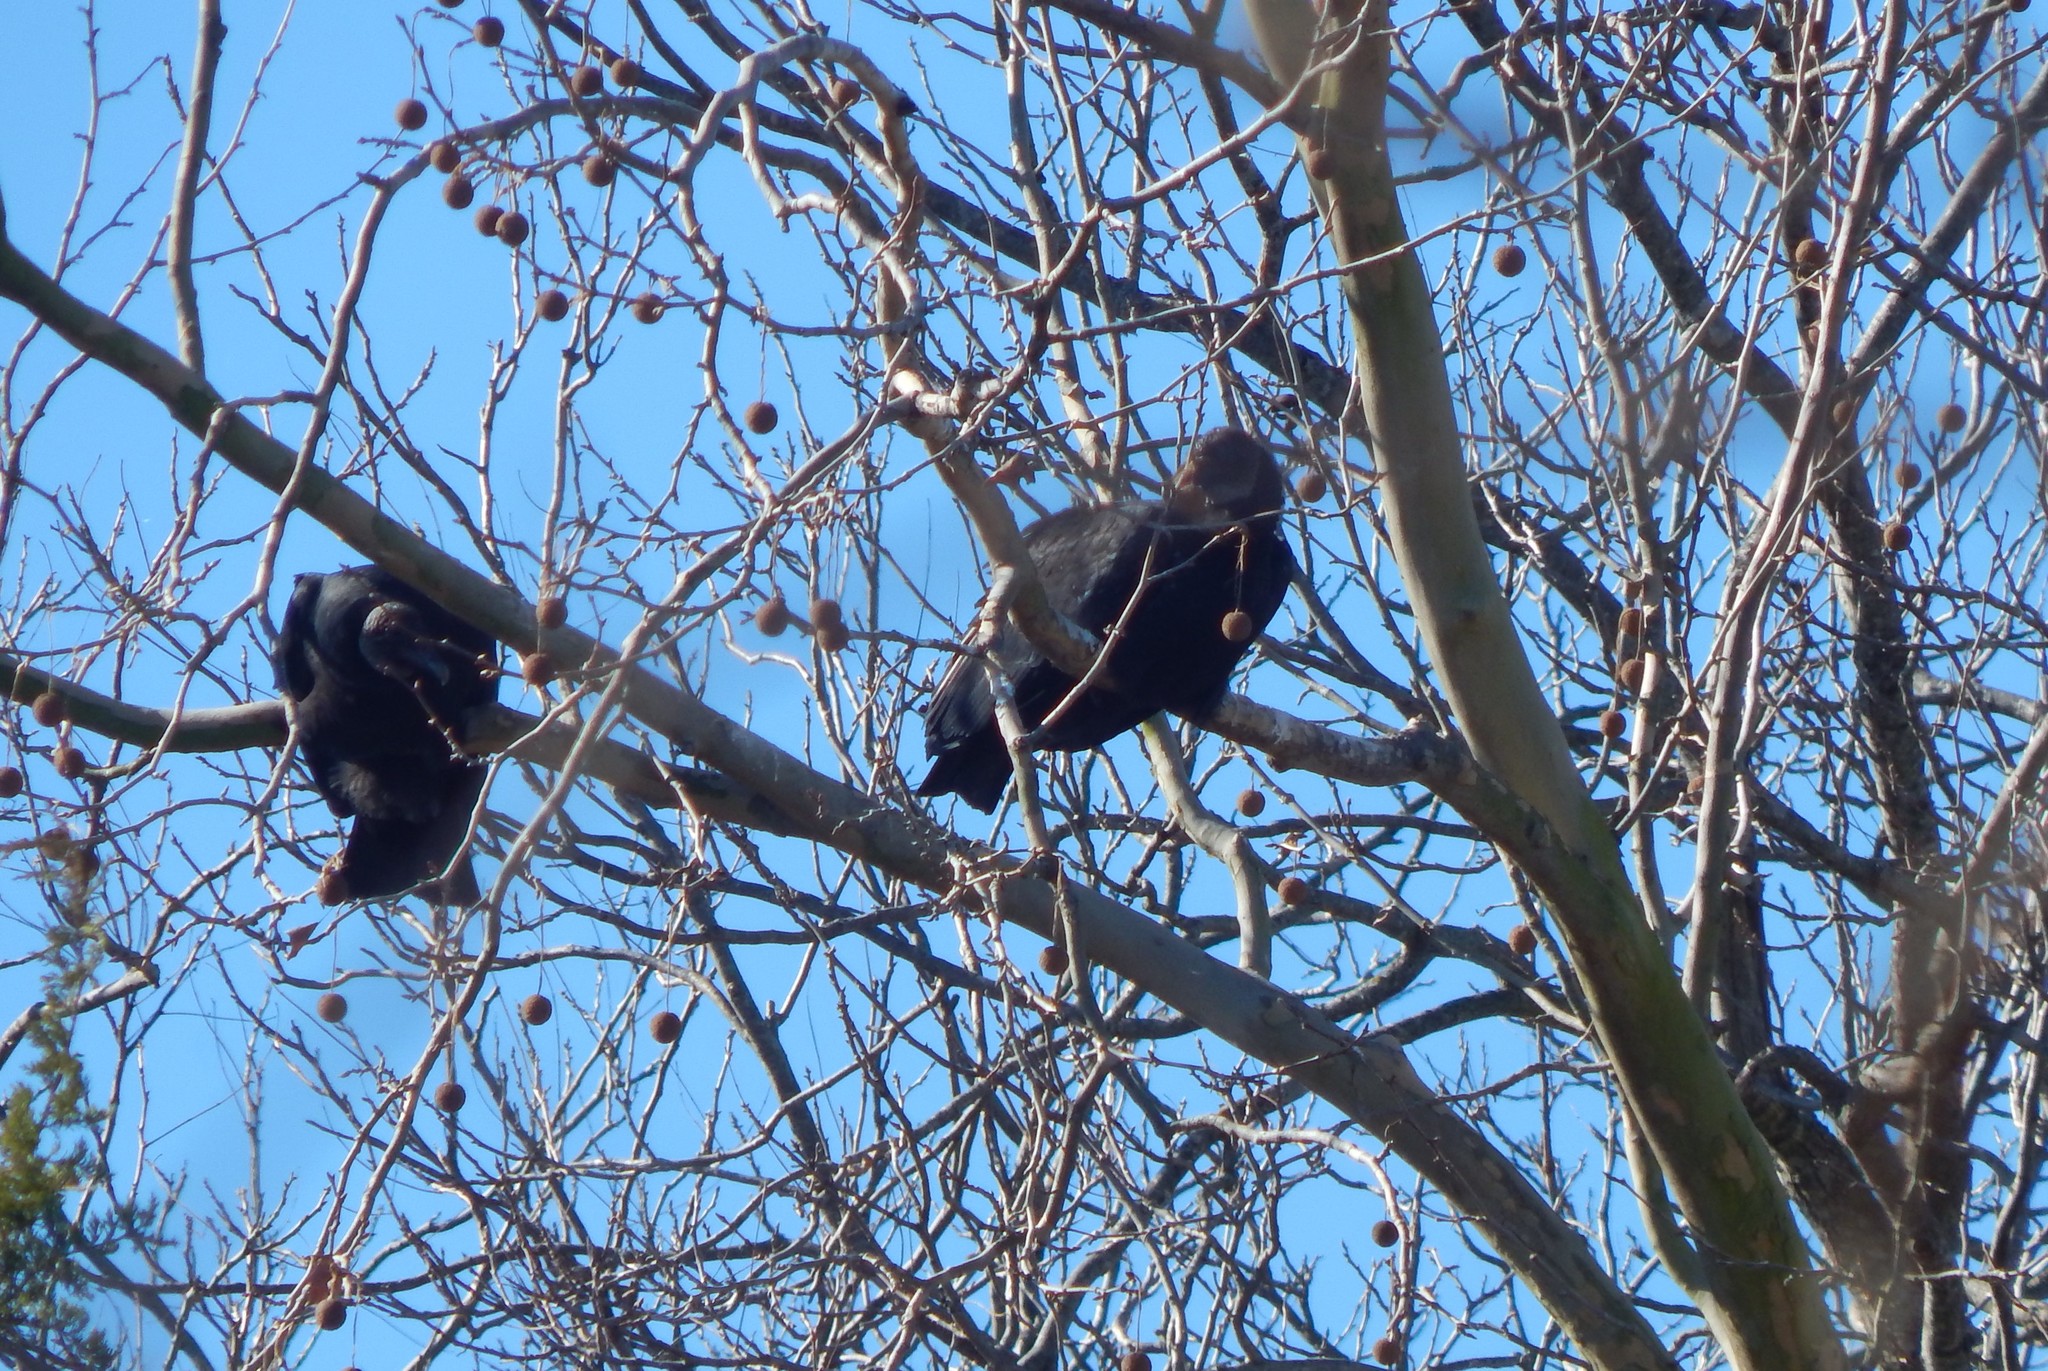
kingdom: Animalia
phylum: Chordata
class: Aves
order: Accipitriformes
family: Cathartidae
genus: Coragyps
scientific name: Coragyps atratus
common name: Black vulture
